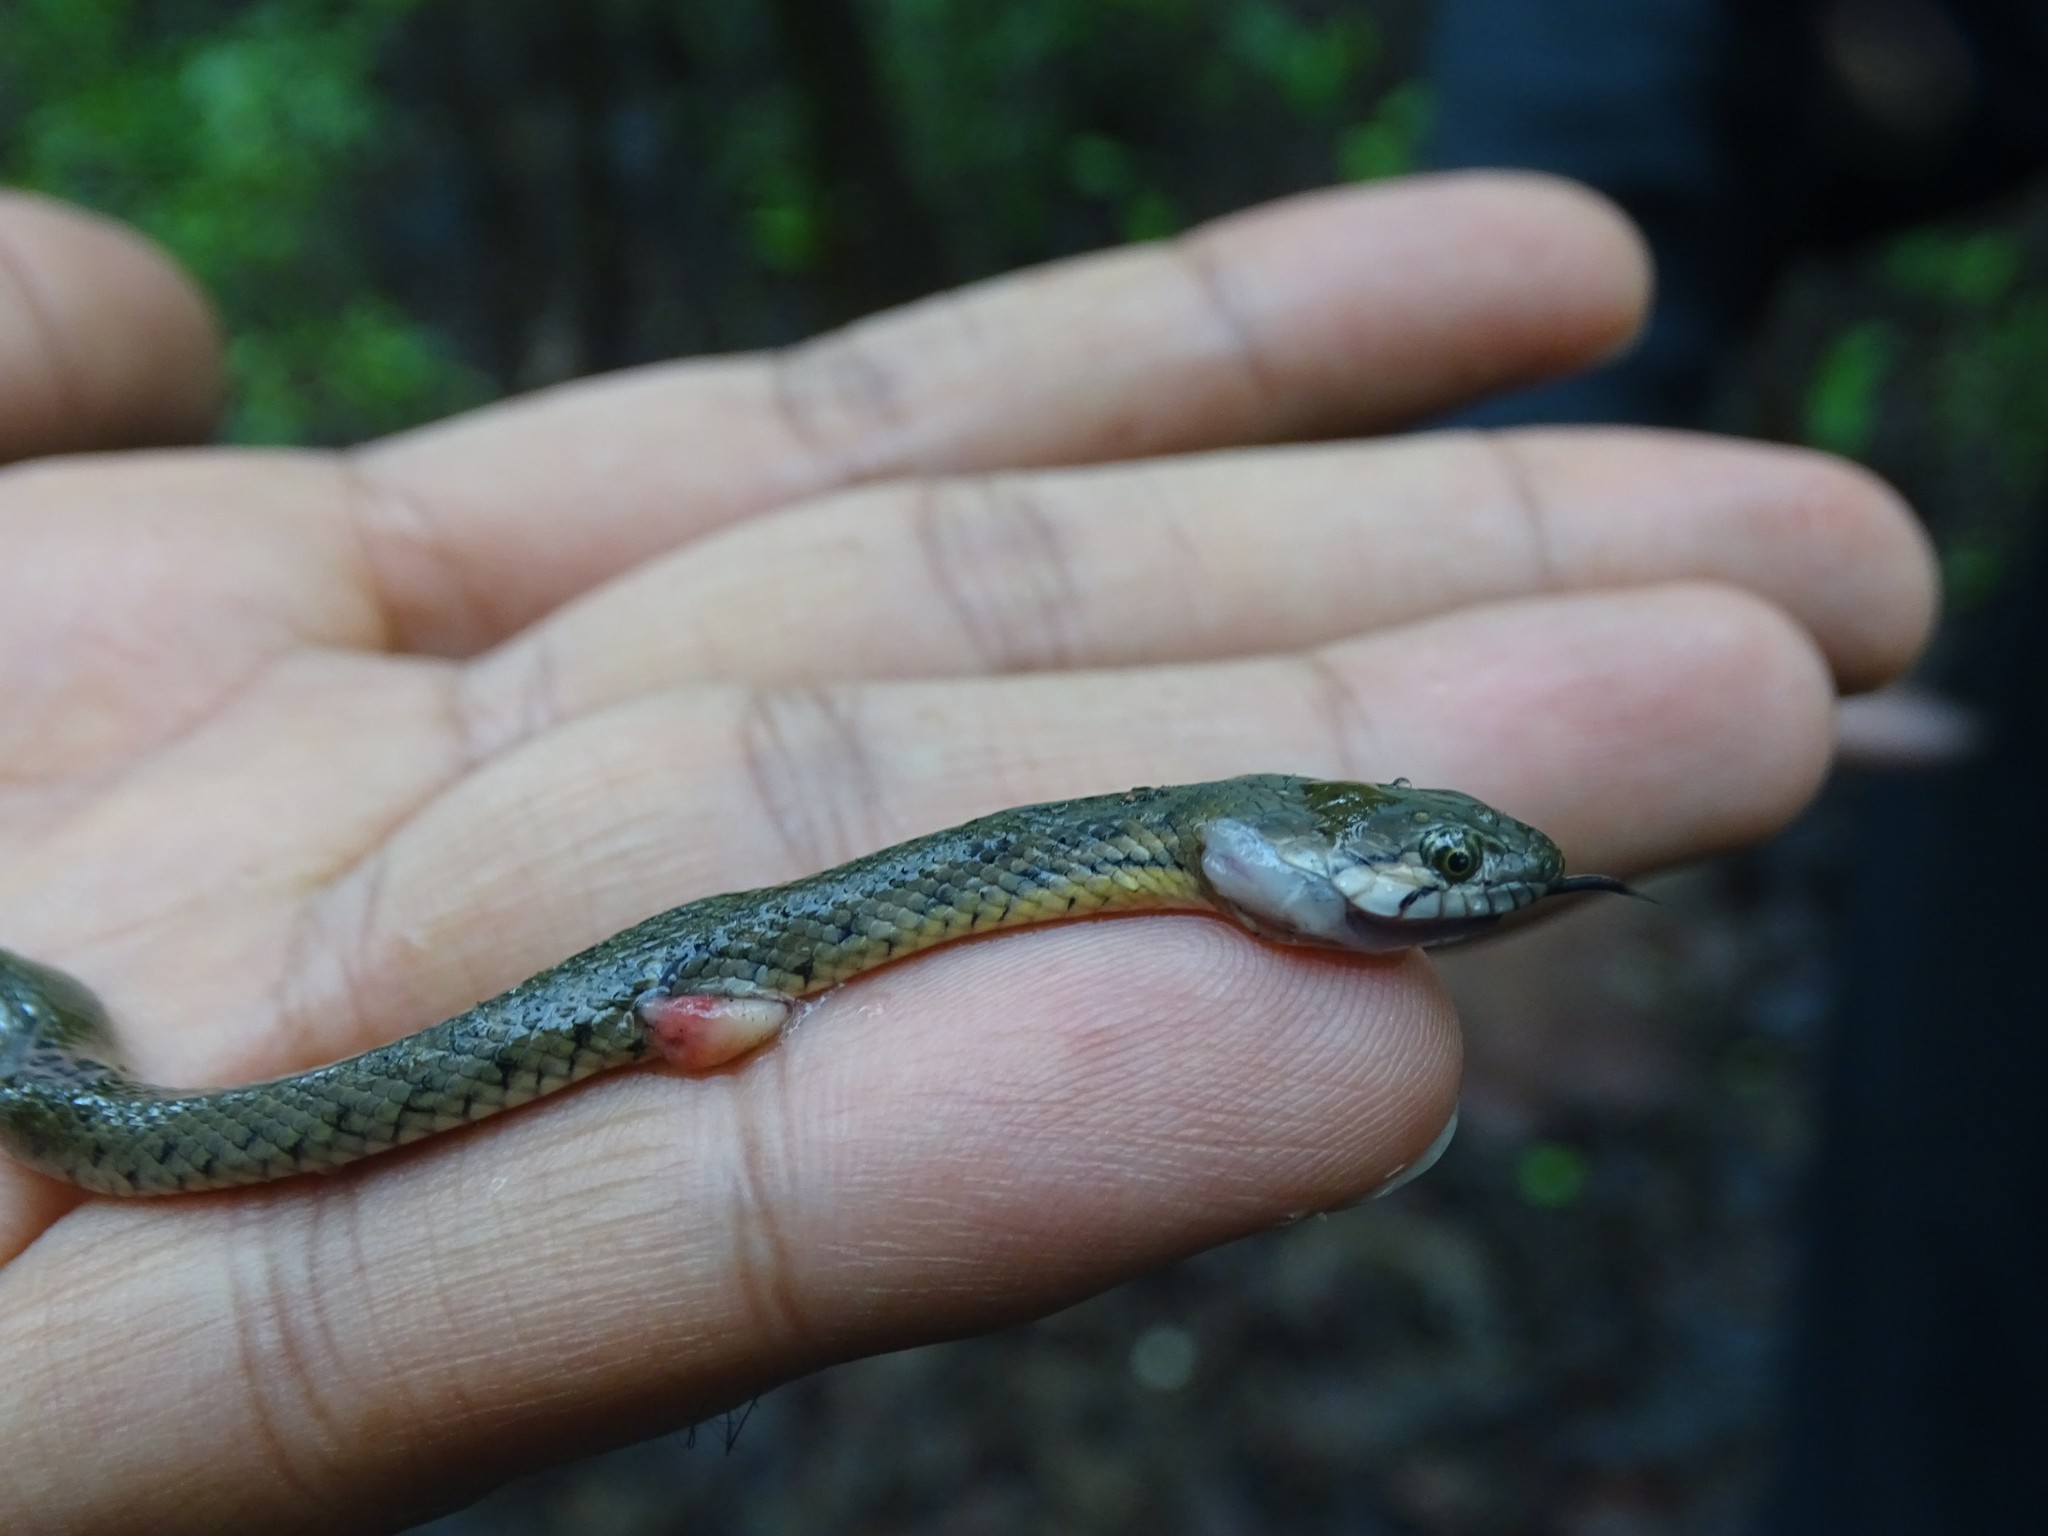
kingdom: Animalia
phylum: Chordata
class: Squamata
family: Colubridae
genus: Fowlea
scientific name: Fowlea piscator
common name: Asiatic water snake
